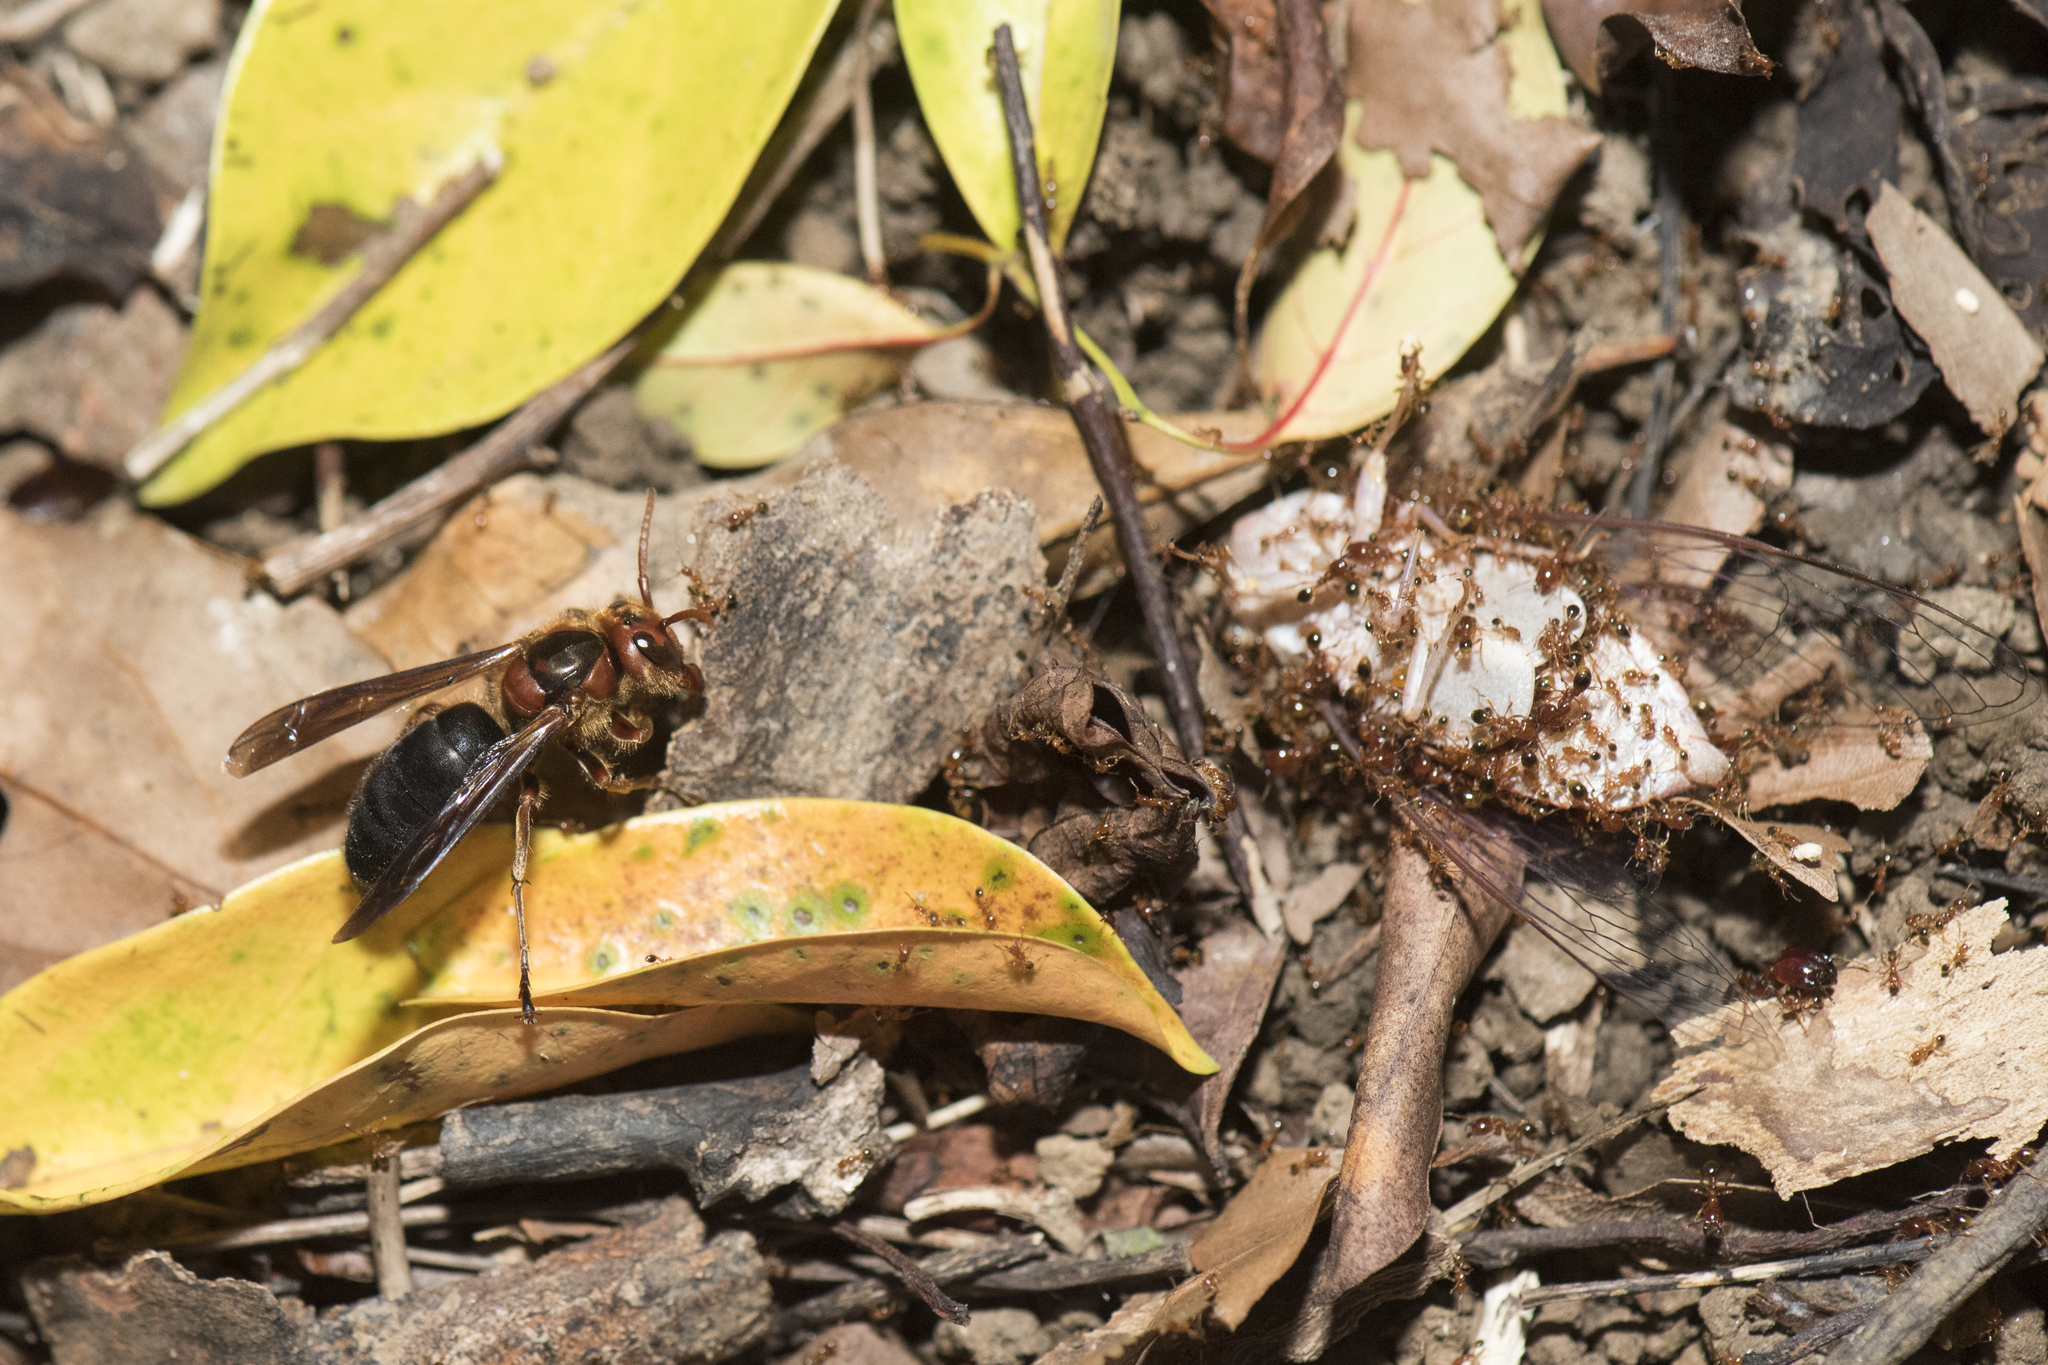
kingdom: Animalia
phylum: Arthropoda
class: Insecta
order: Hymenoptera
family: Vespidae
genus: Vespa
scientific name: Vespa basalis
